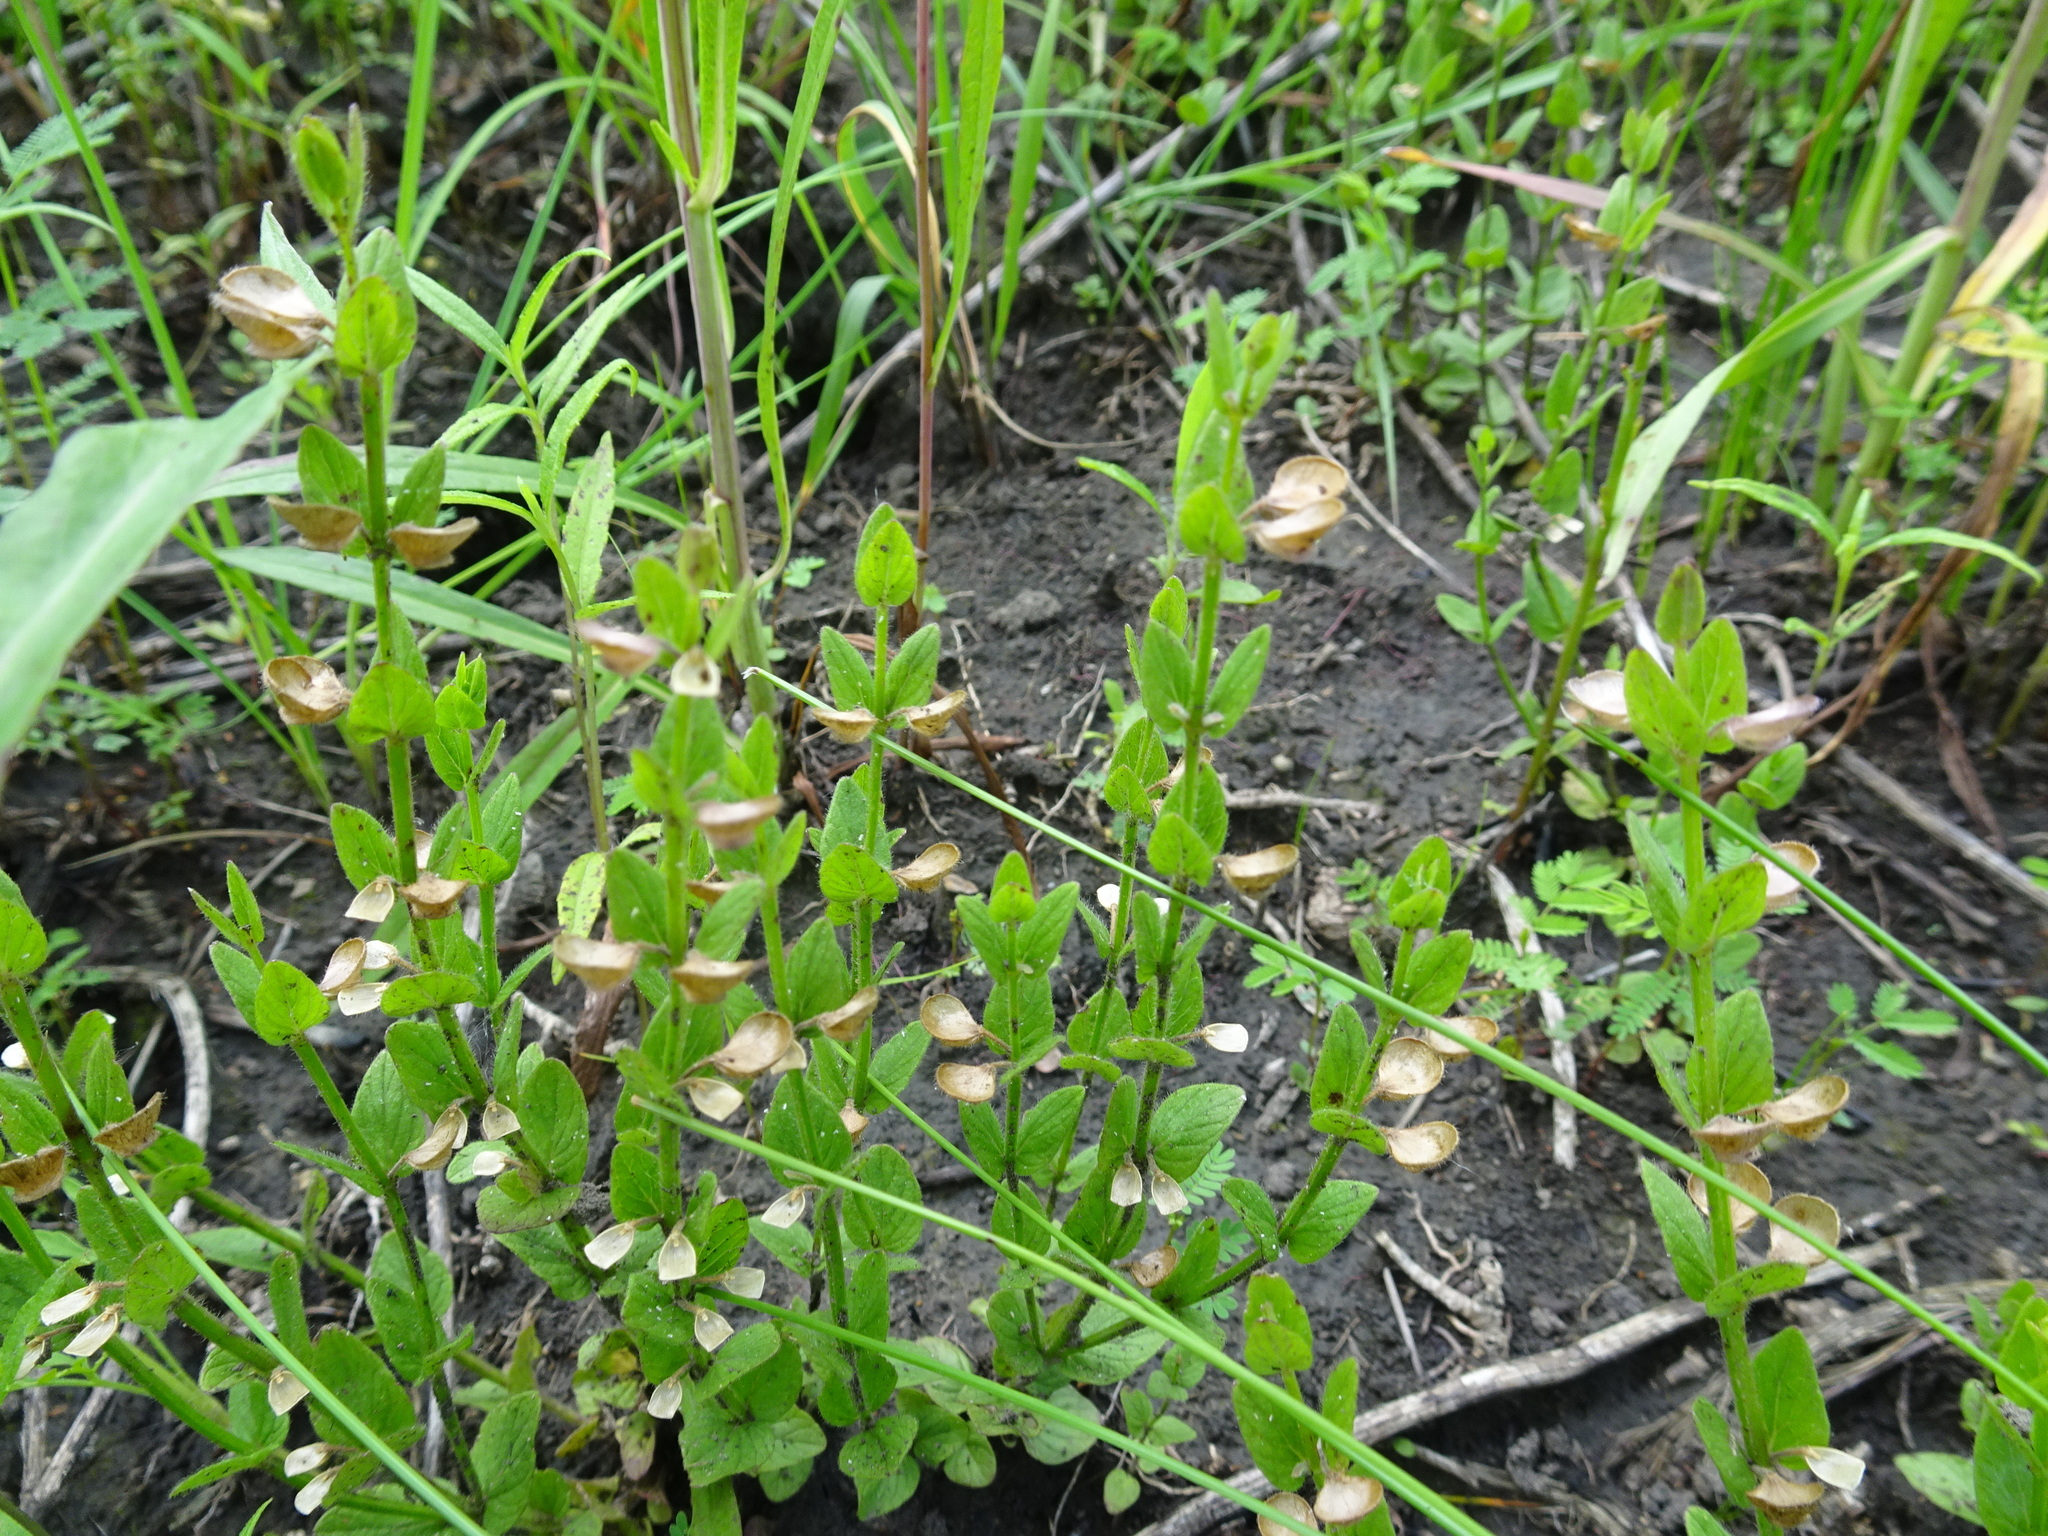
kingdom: Plantae
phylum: Tracheophyta
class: Magnoliopsida
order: Lamiales
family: Lamiaceae
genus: Scutellaria
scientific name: Scutellaria parvula
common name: Little scullcap
